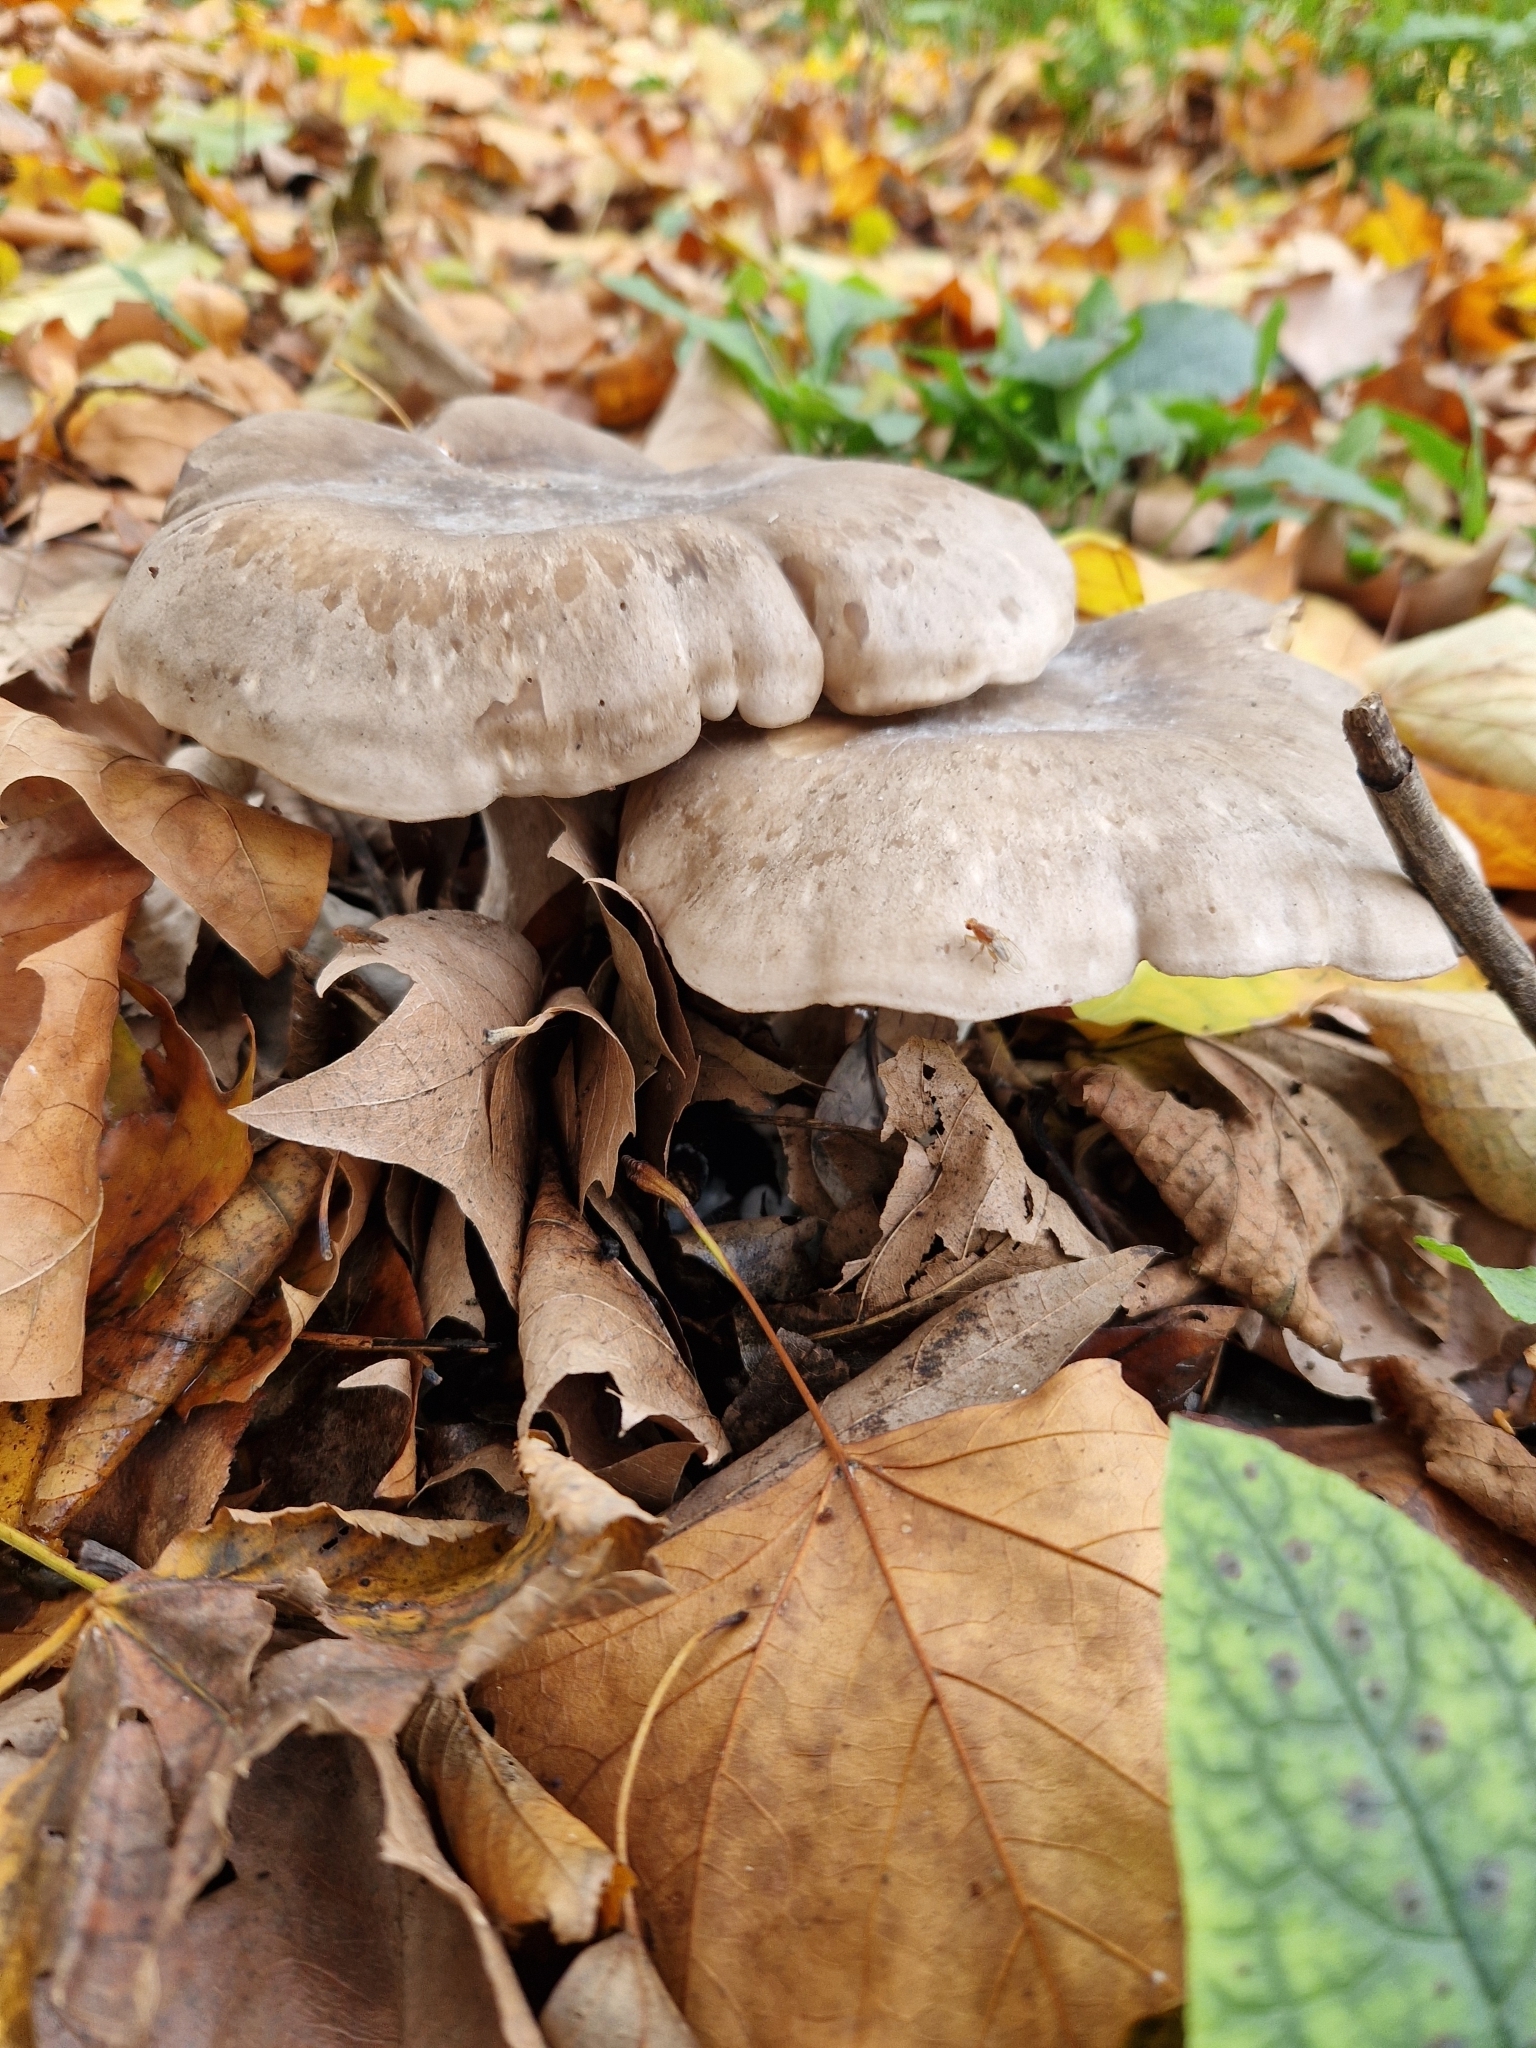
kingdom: Fungi
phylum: Basidiomycota
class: Agaricomycetes
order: Agaricales
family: Tricholomataceae
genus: Clitocybe
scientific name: Clitocybe nebularis
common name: Clouded agaric
